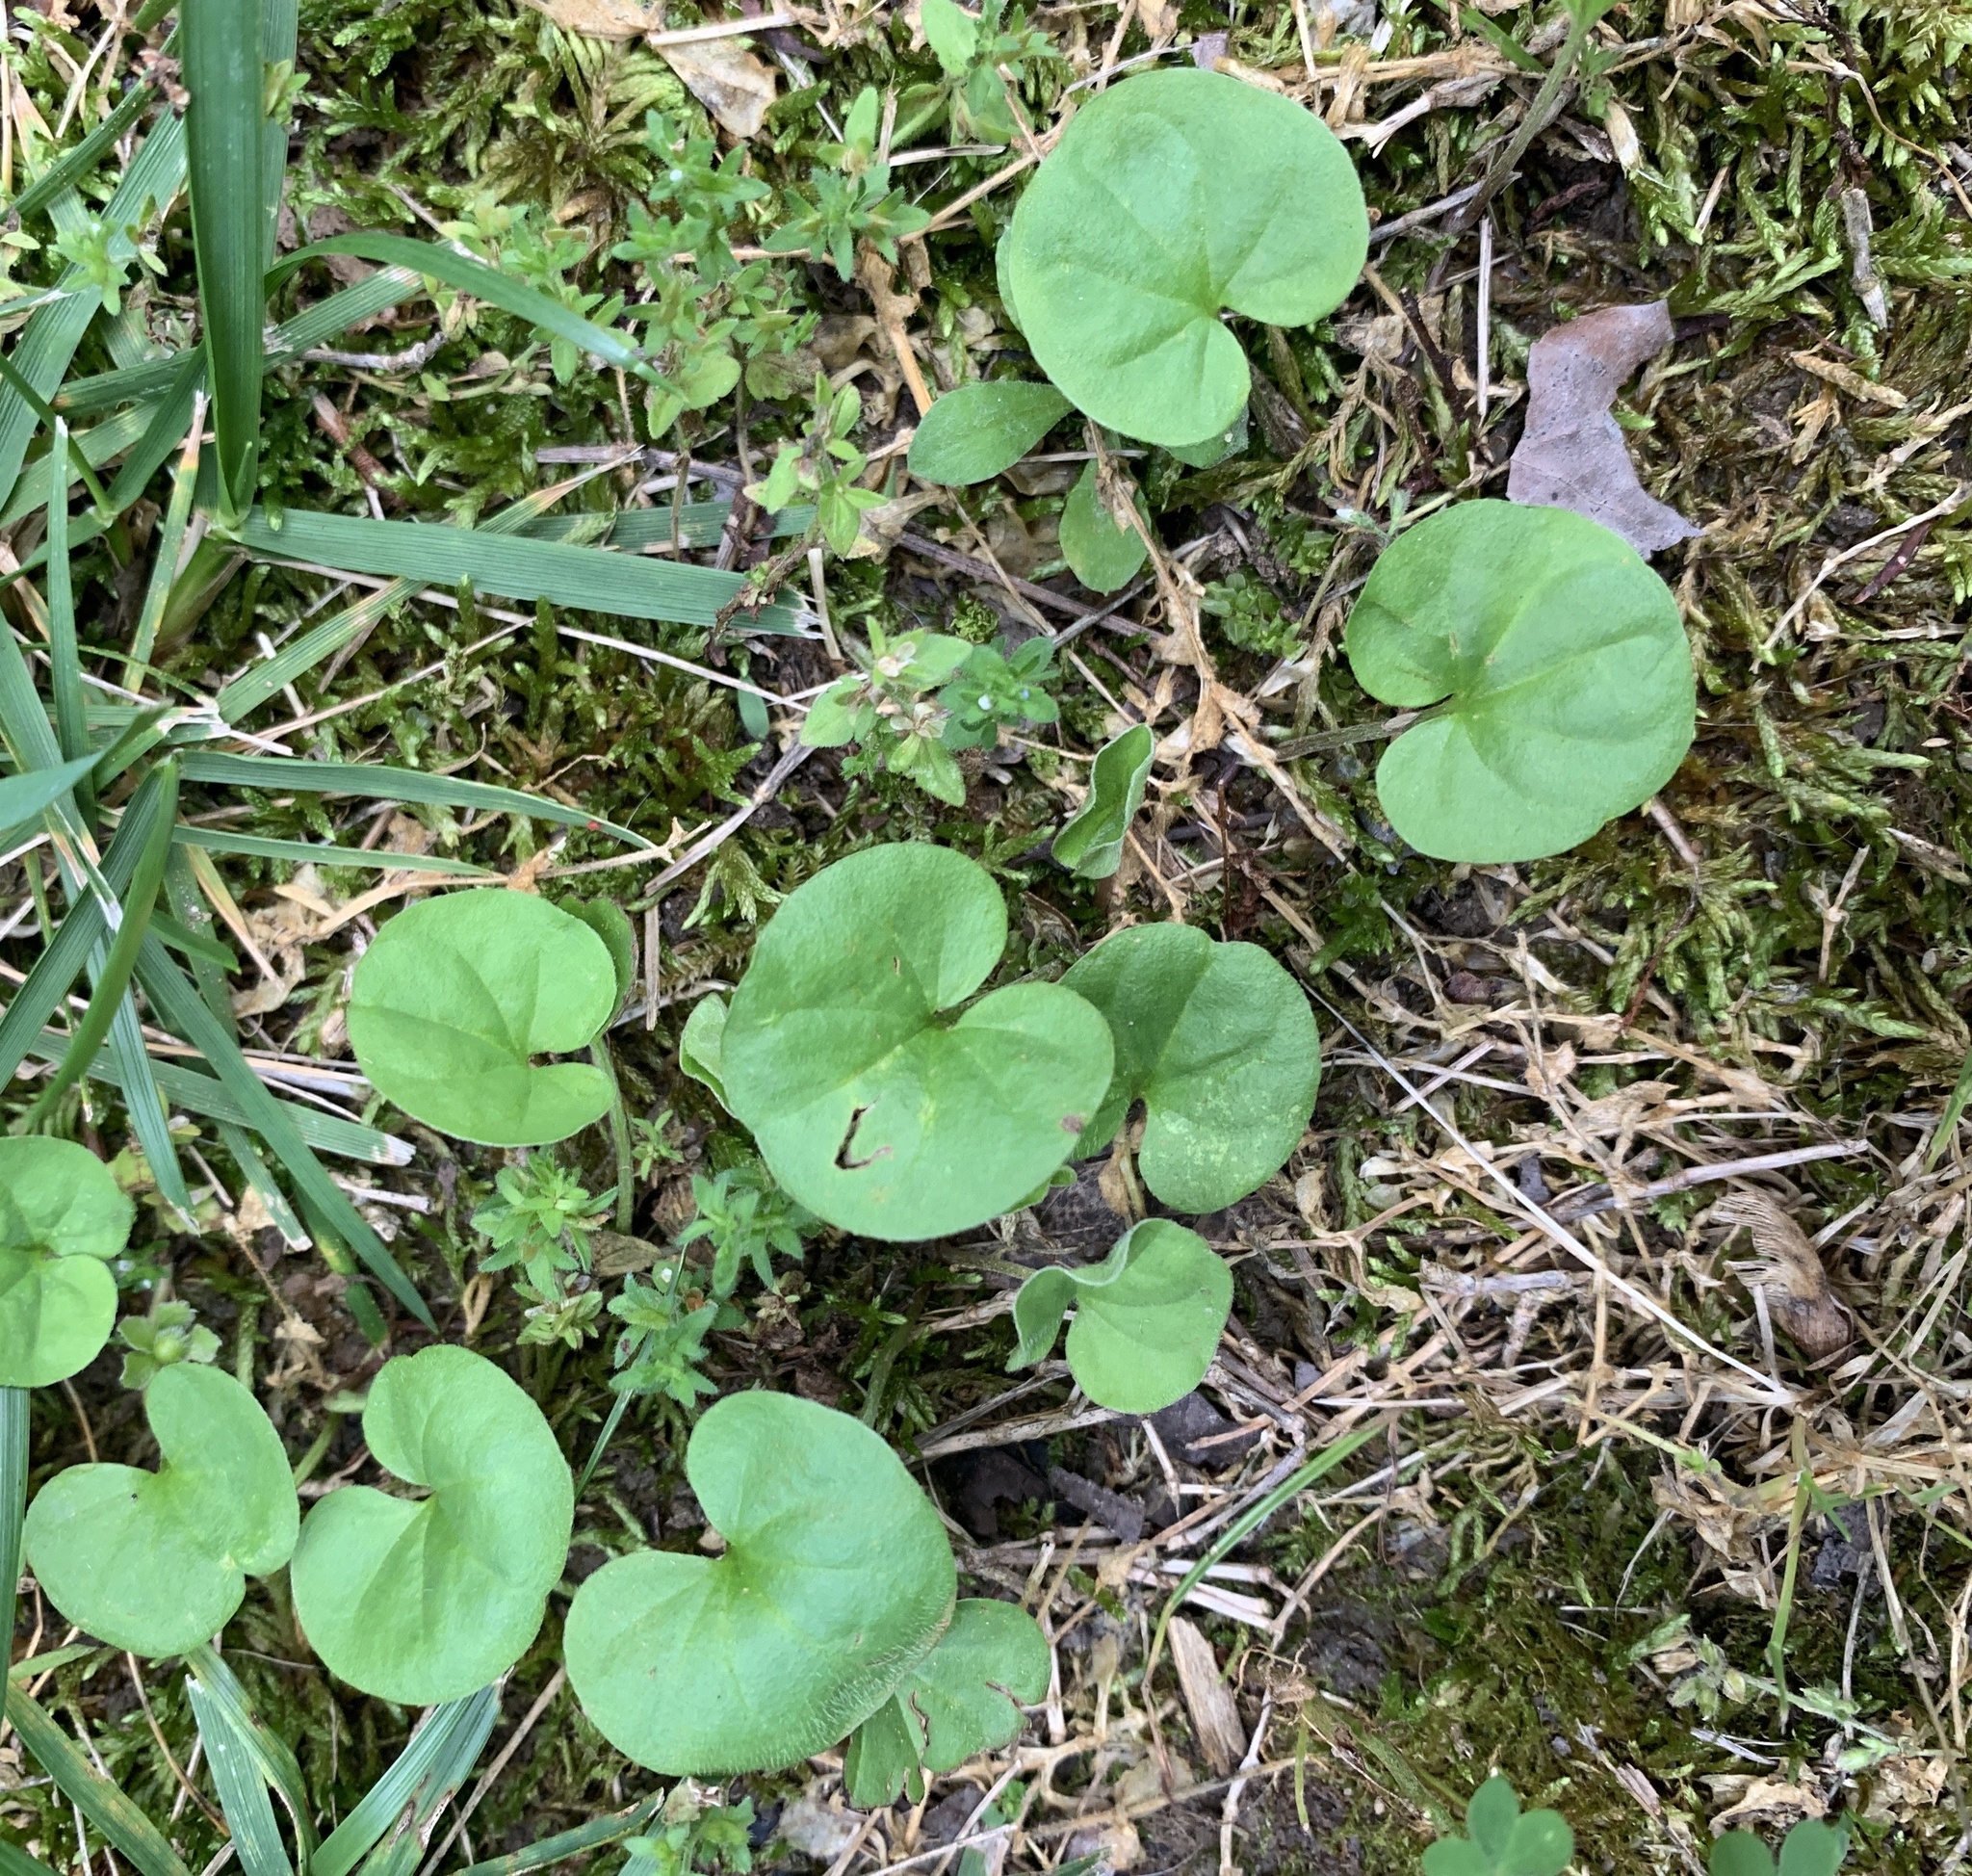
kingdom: Plantae
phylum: Tracheophyta
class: Magnoliopsida
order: Solanales
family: Convolvulaceae
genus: Dichondra
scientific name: Dichondra carolinensis
